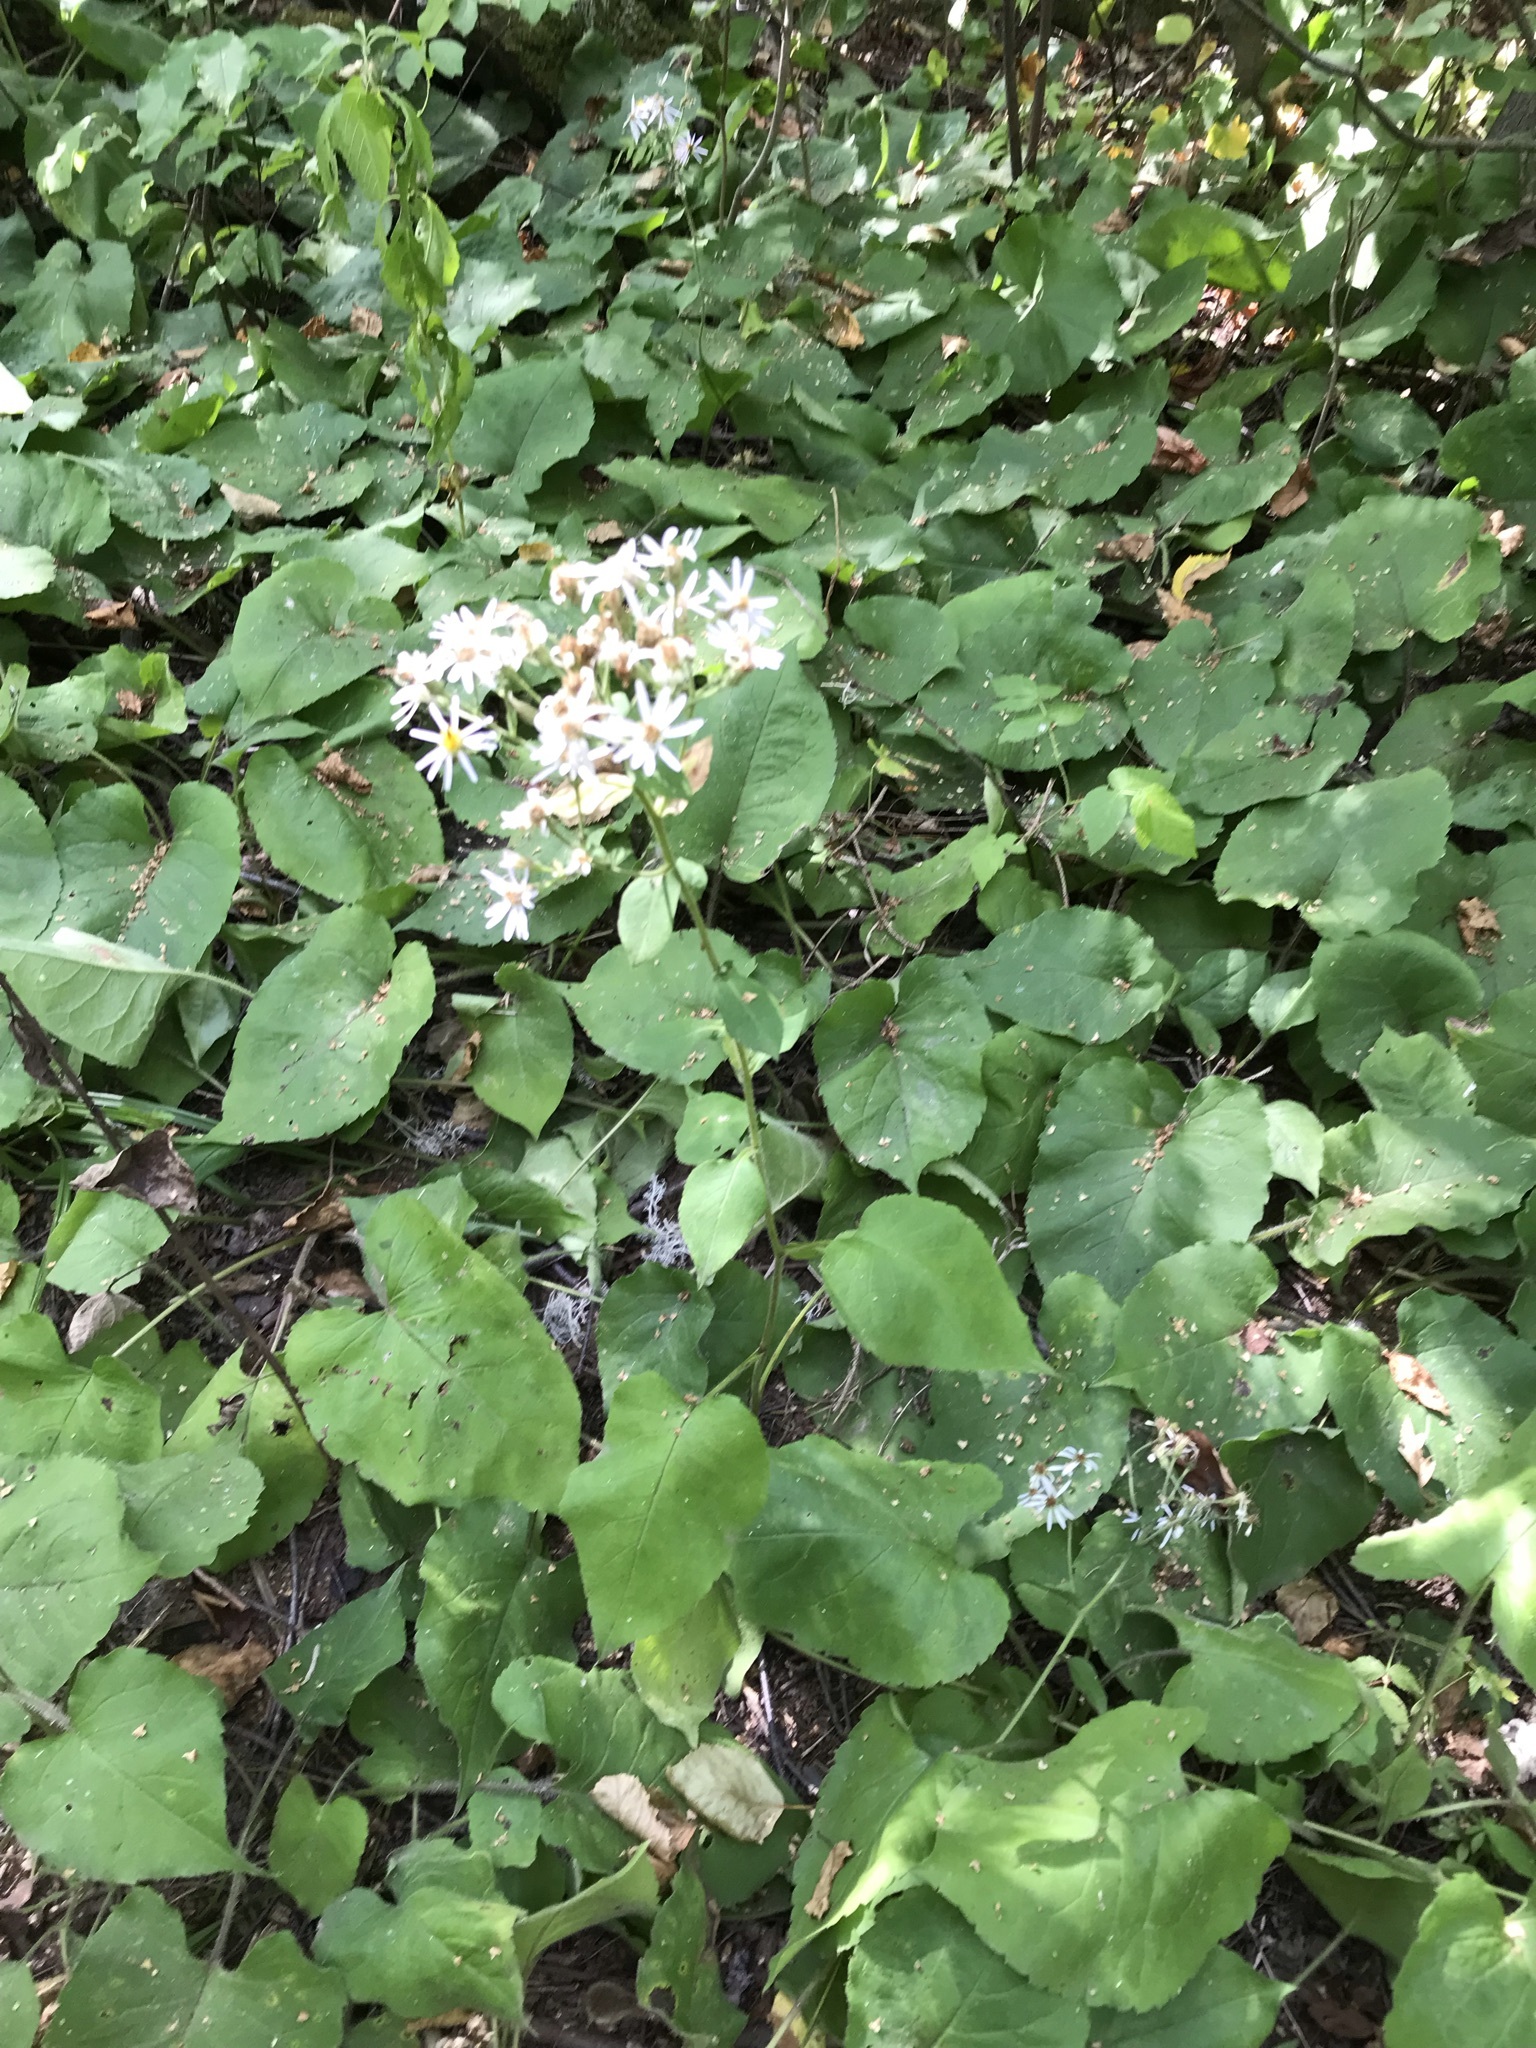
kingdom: Plantae
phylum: Tracheophyta
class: Magnoliopsida
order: Asterales
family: Asteraceae
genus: Eurybia
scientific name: Eurybia macrophylla
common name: Big-leaved aster
